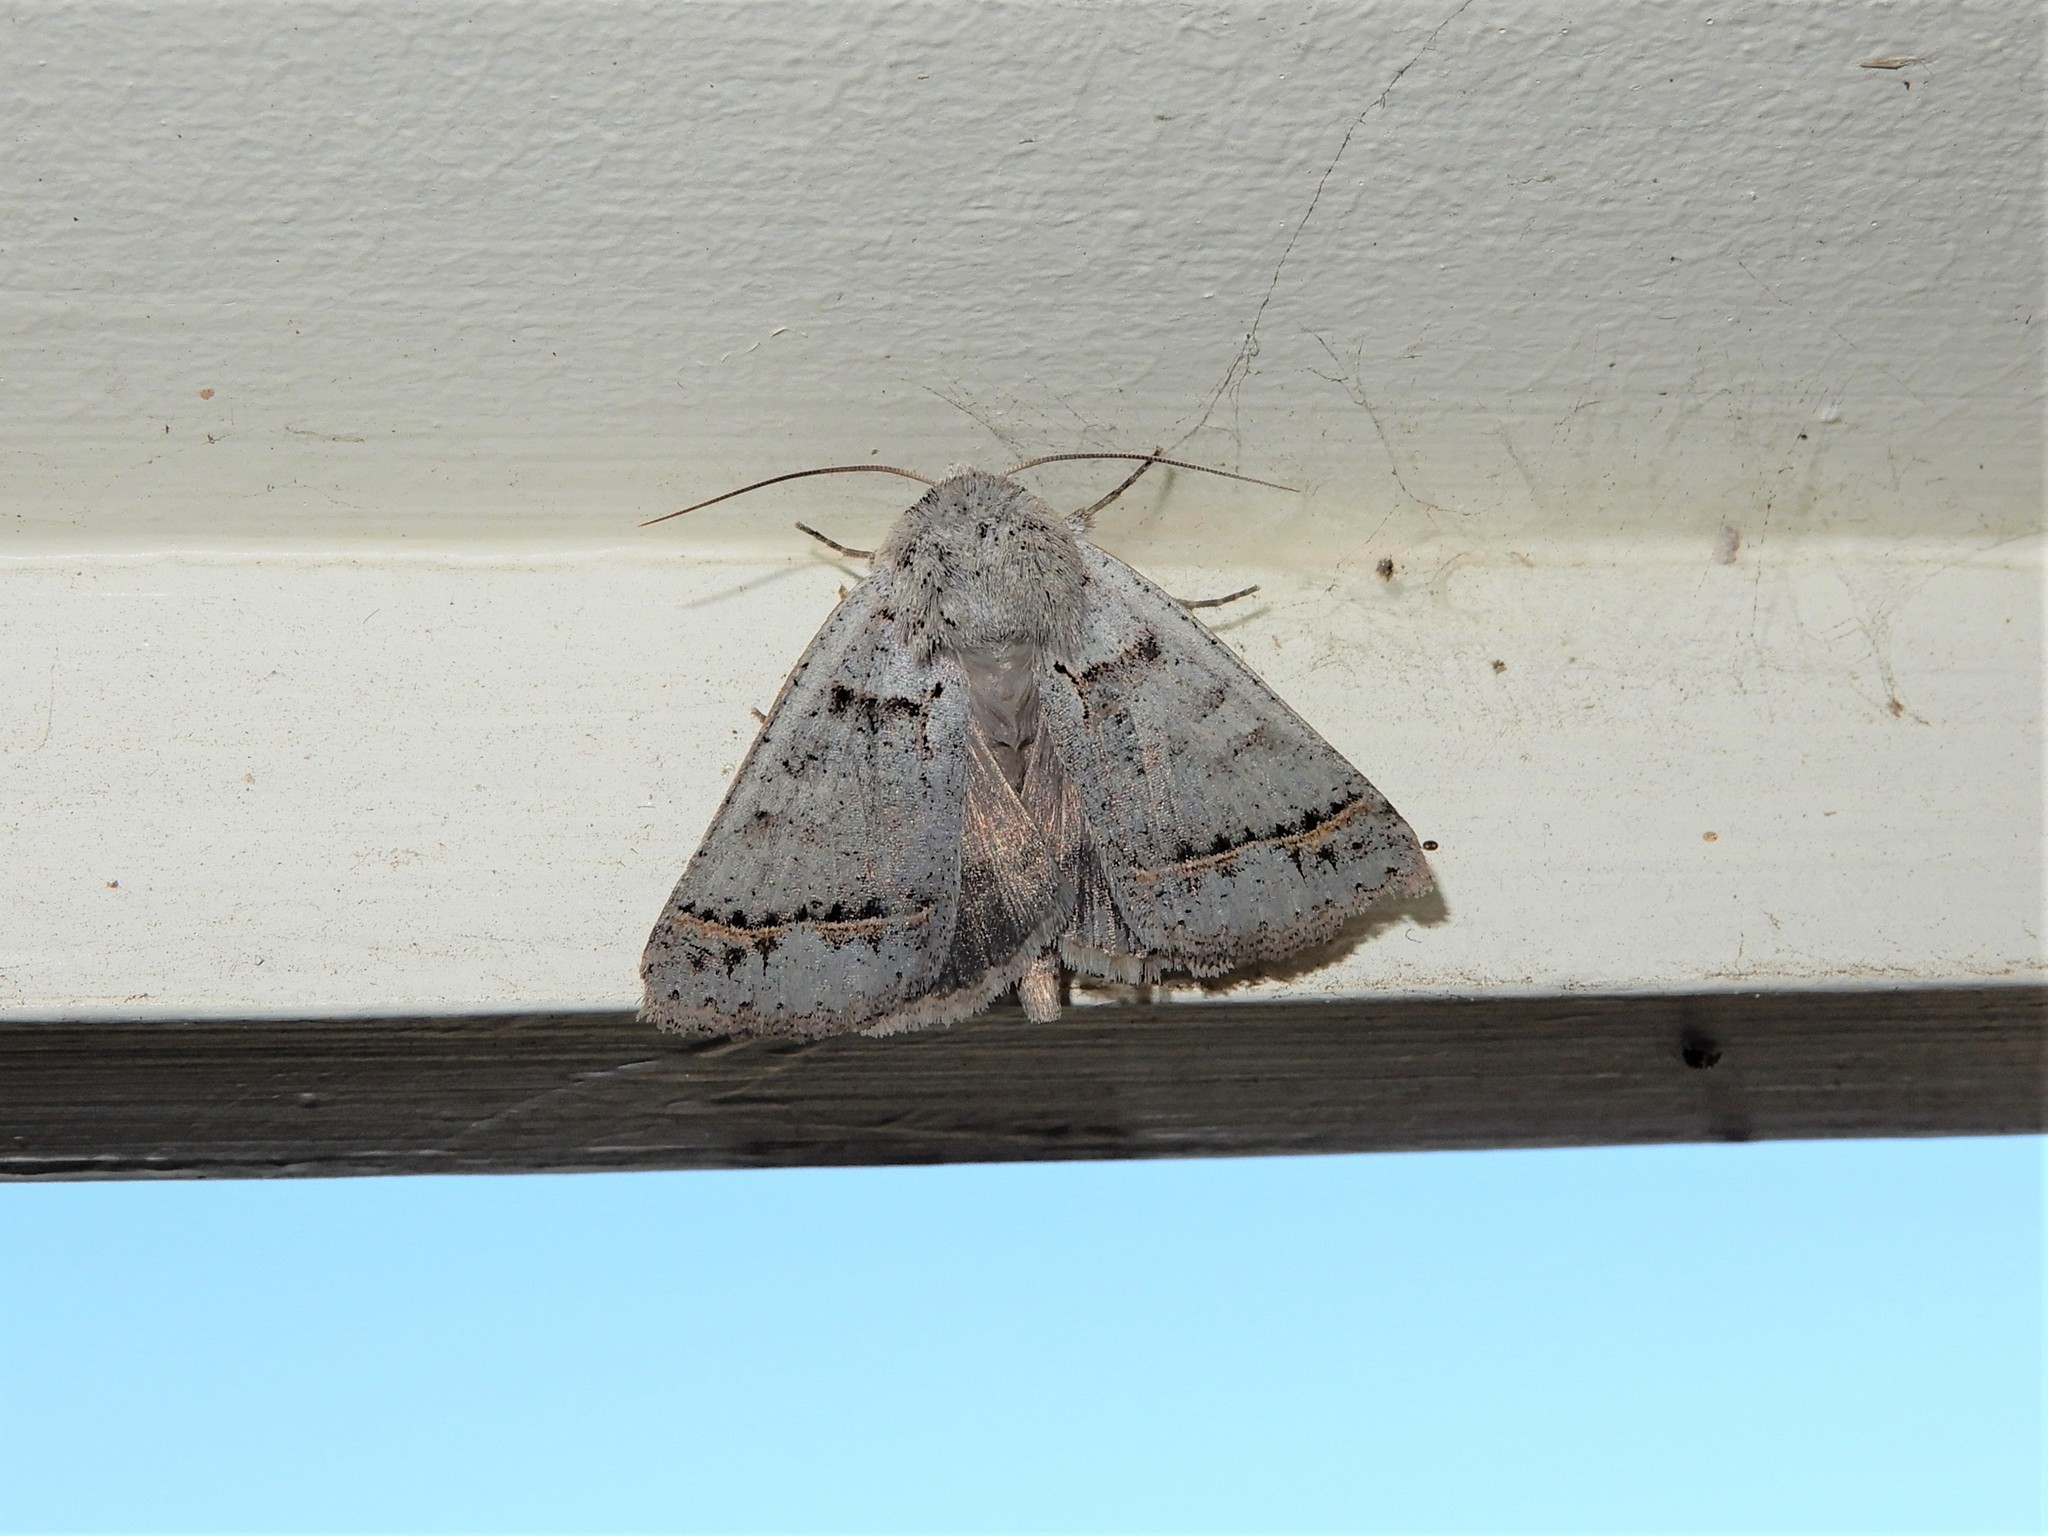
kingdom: Animalia
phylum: Arthropoda
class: Insecta
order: Lepidoptera
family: Erebidae
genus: Pantydia
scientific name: Pantydia sparsa
